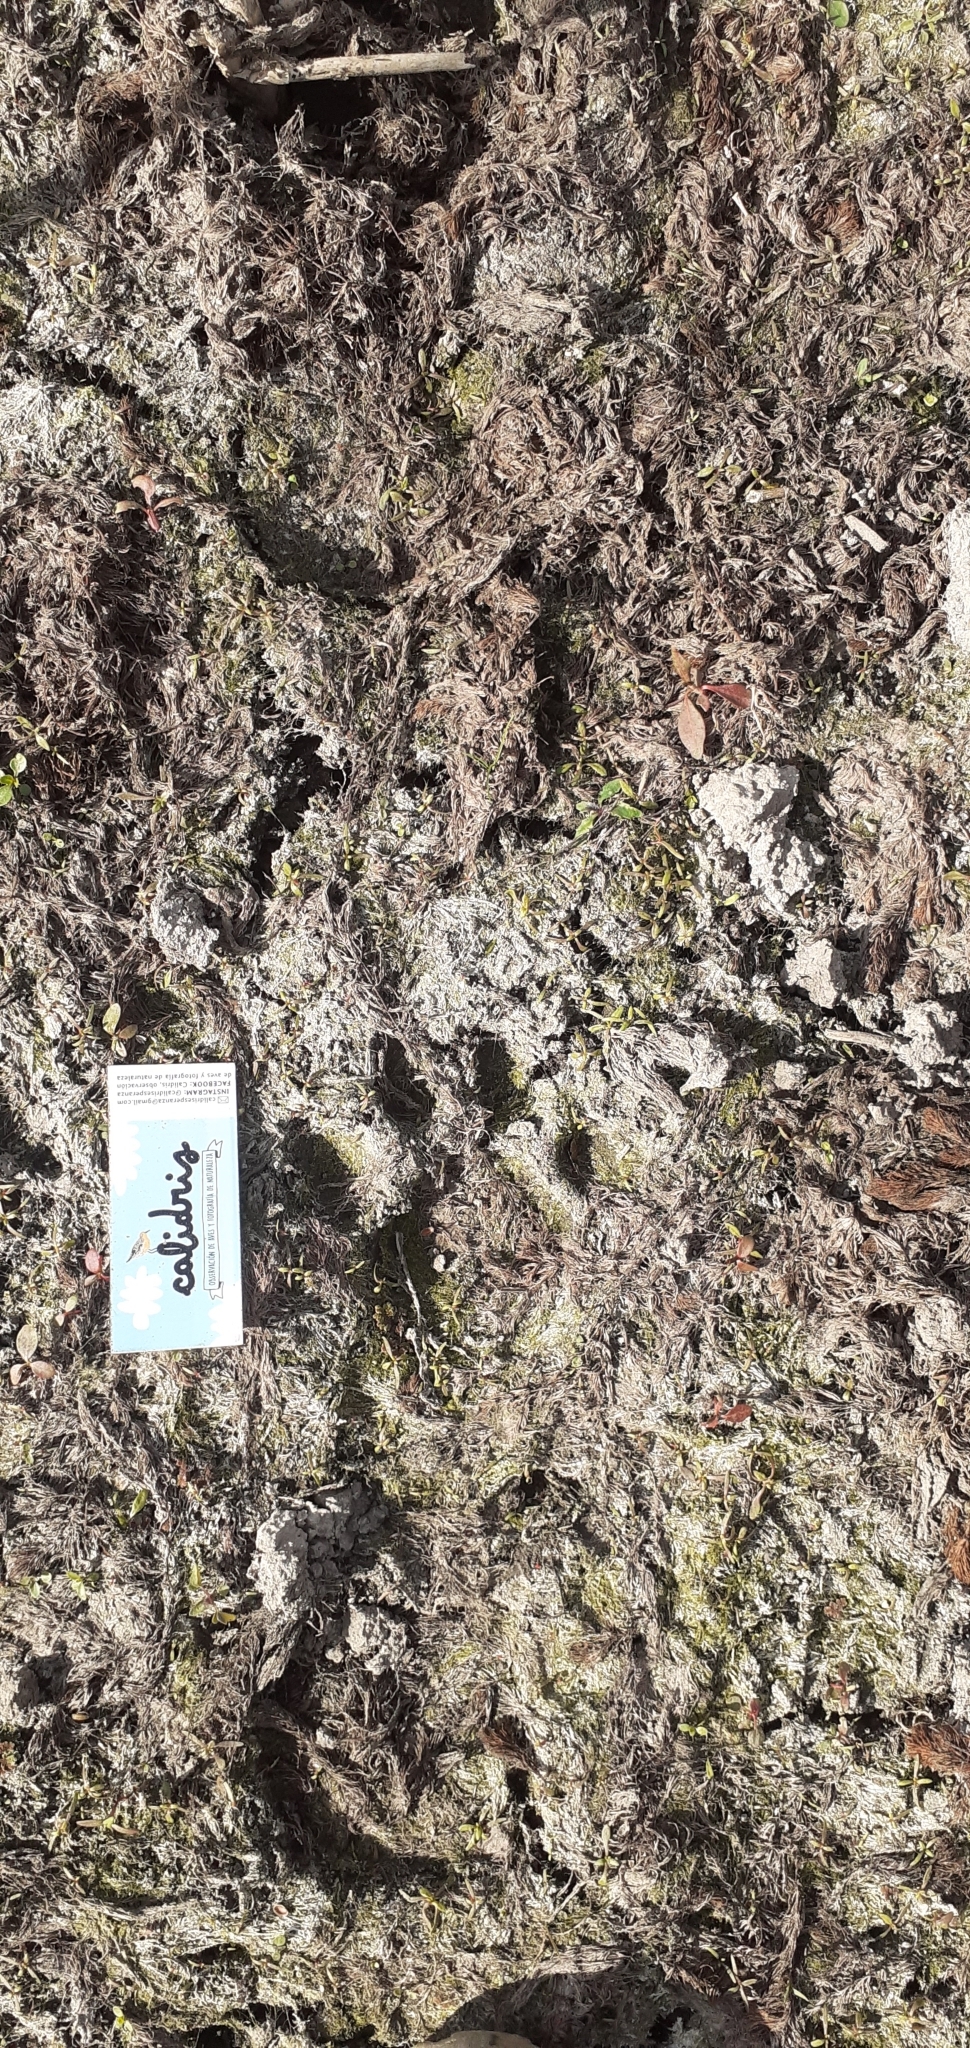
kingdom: Animalia
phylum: Chordata
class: Mammalia
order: Carnivora
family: Felidae
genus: Puma
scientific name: Puma concolor
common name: Puma
